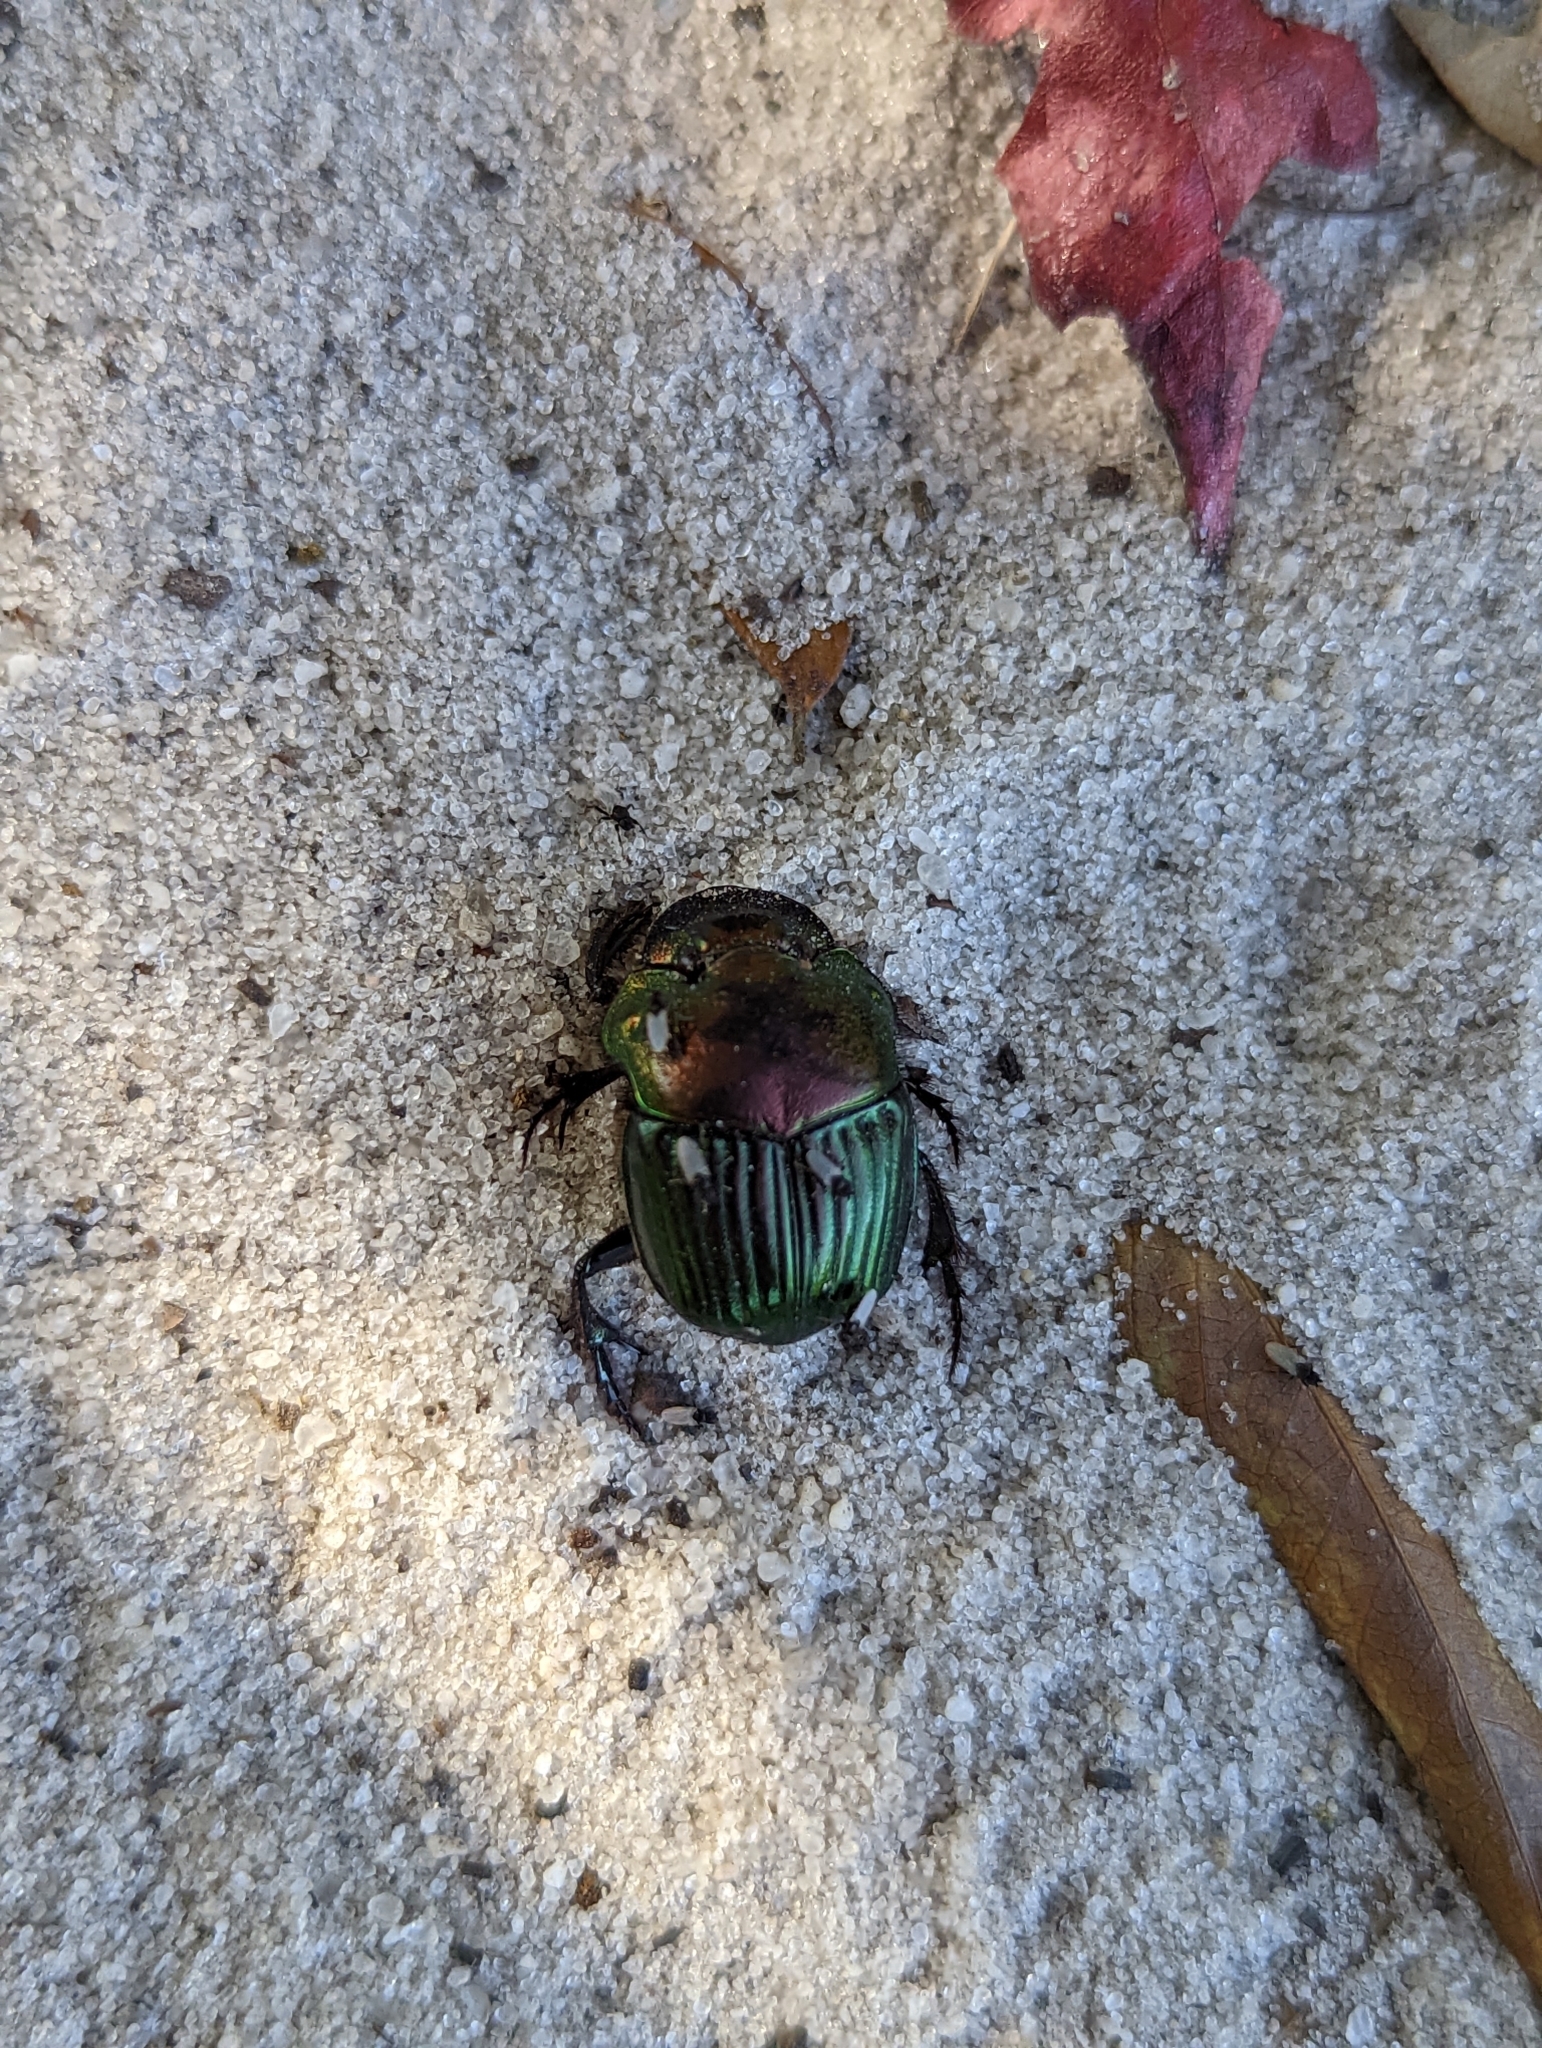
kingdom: Animalia
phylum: Arthropoda
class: Insecta
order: Coleoptera
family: Scarabaeidae
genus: Phanaeus
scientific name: Phanaeus igneus
